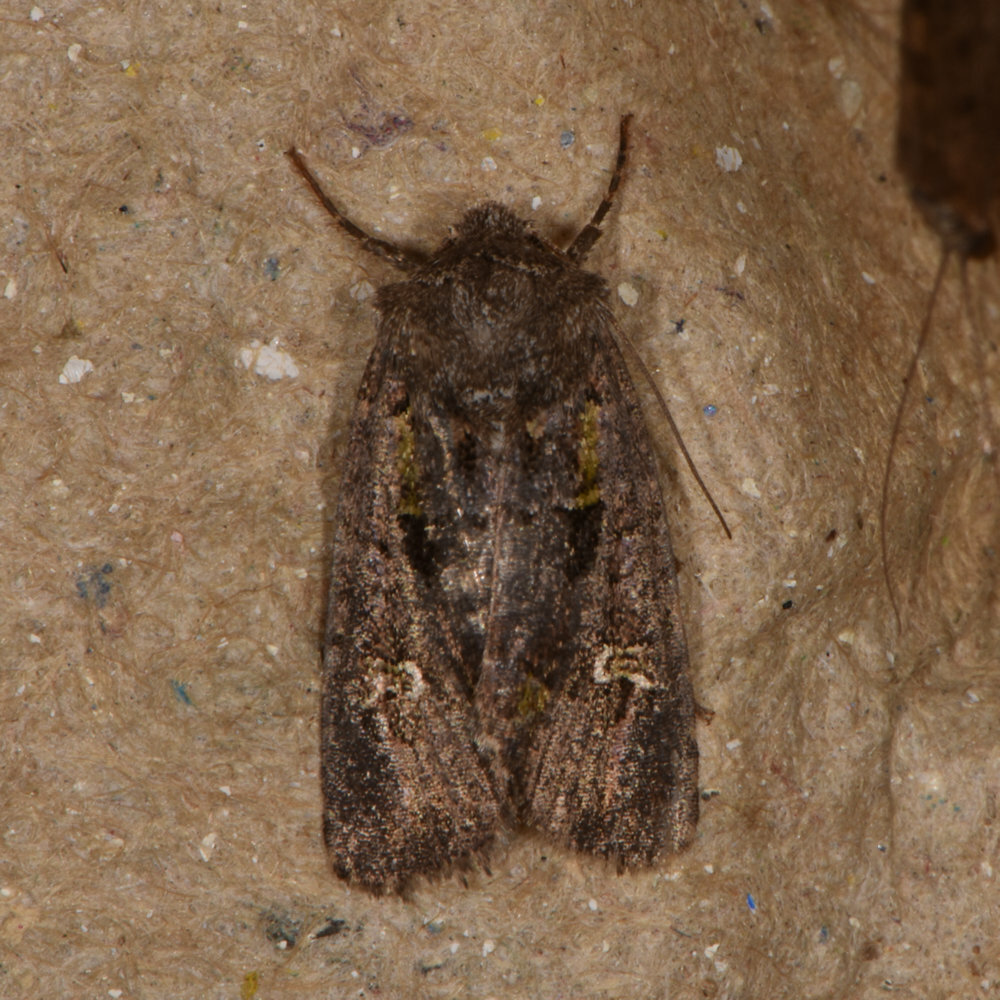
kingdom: Animalia
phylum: Arthropoda
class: Insecta
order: Lepidoptera
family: Noctuidae
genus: Lacinipolia
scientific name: Lacinipolia renigera
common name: Kidney-spotted minor
